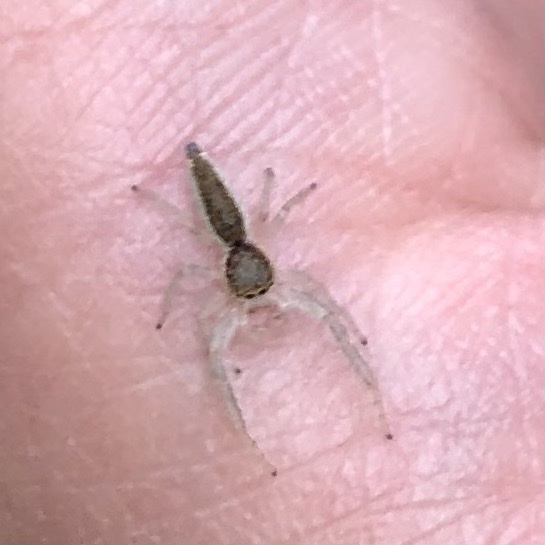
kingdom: Animalia
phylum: Arthropoda
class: Arachnida
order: Araneae
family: Salticidae
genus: Hentzia
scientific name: Hentzia mitrata
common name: White-jawed jumping spider
